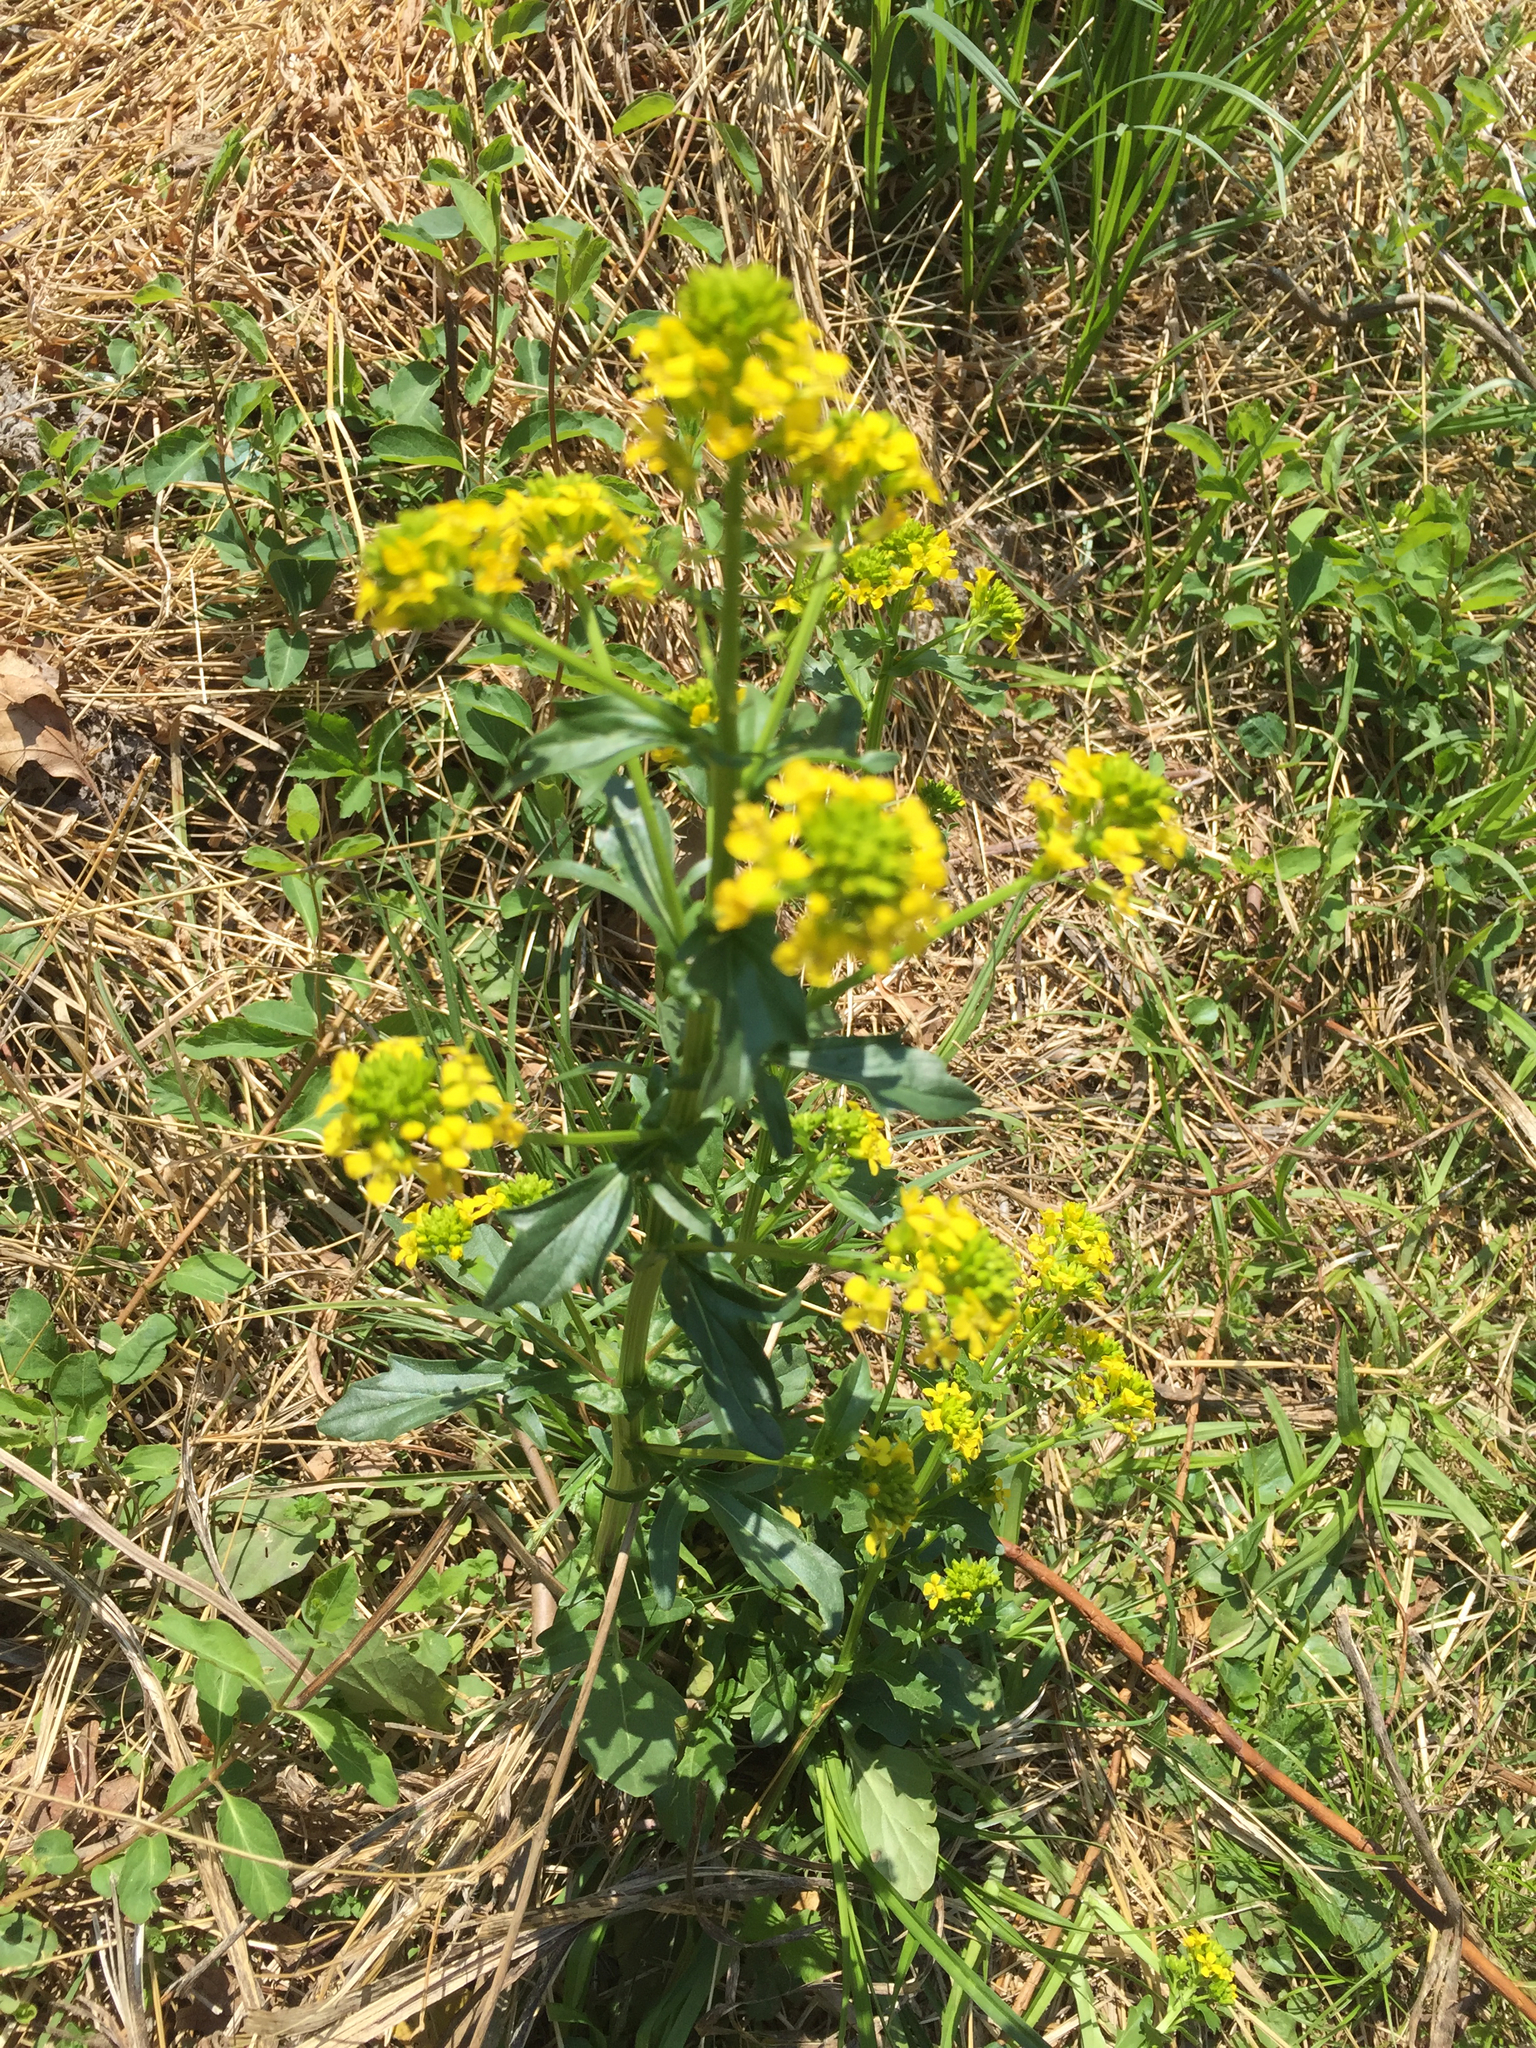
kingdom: Plantae
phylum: Tracheophyta
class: Magnoliopsida
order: Brassicales
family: Brassicaceae
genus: Barbarea
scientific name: Barbarea vulgaris
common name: Cressy-greens
